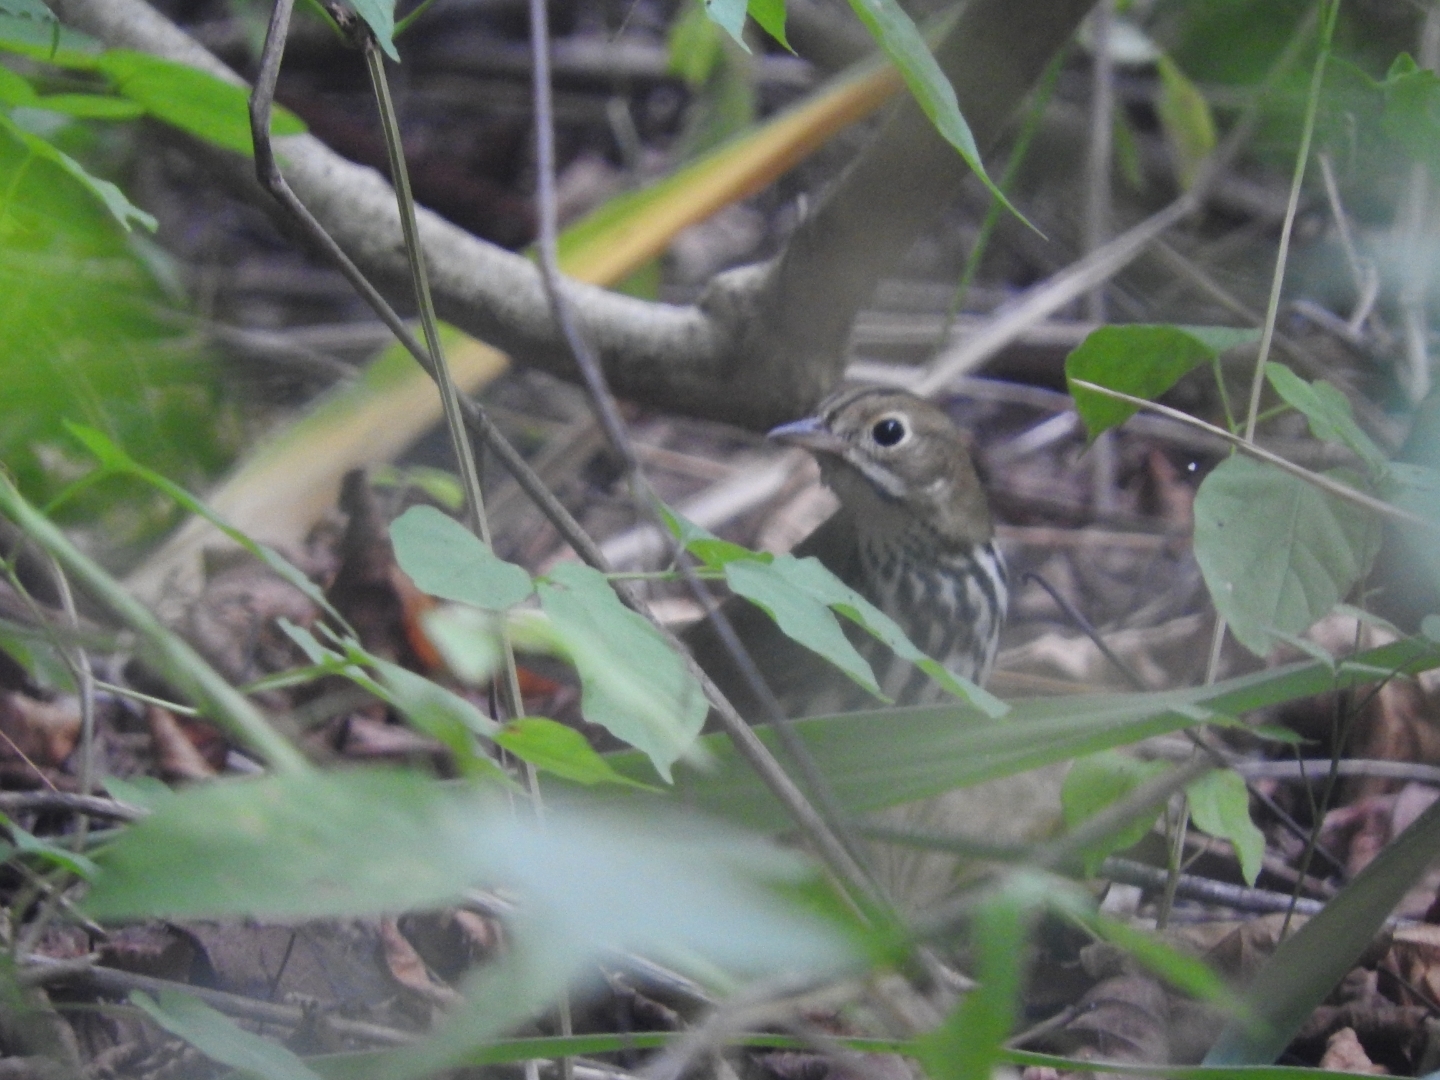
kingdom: Animalia
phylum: Chordata
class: Aves
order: Passeriformes
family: Parulidae
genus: Seiurus
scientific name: Seiurus aurocapilla
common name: Ovenbird
